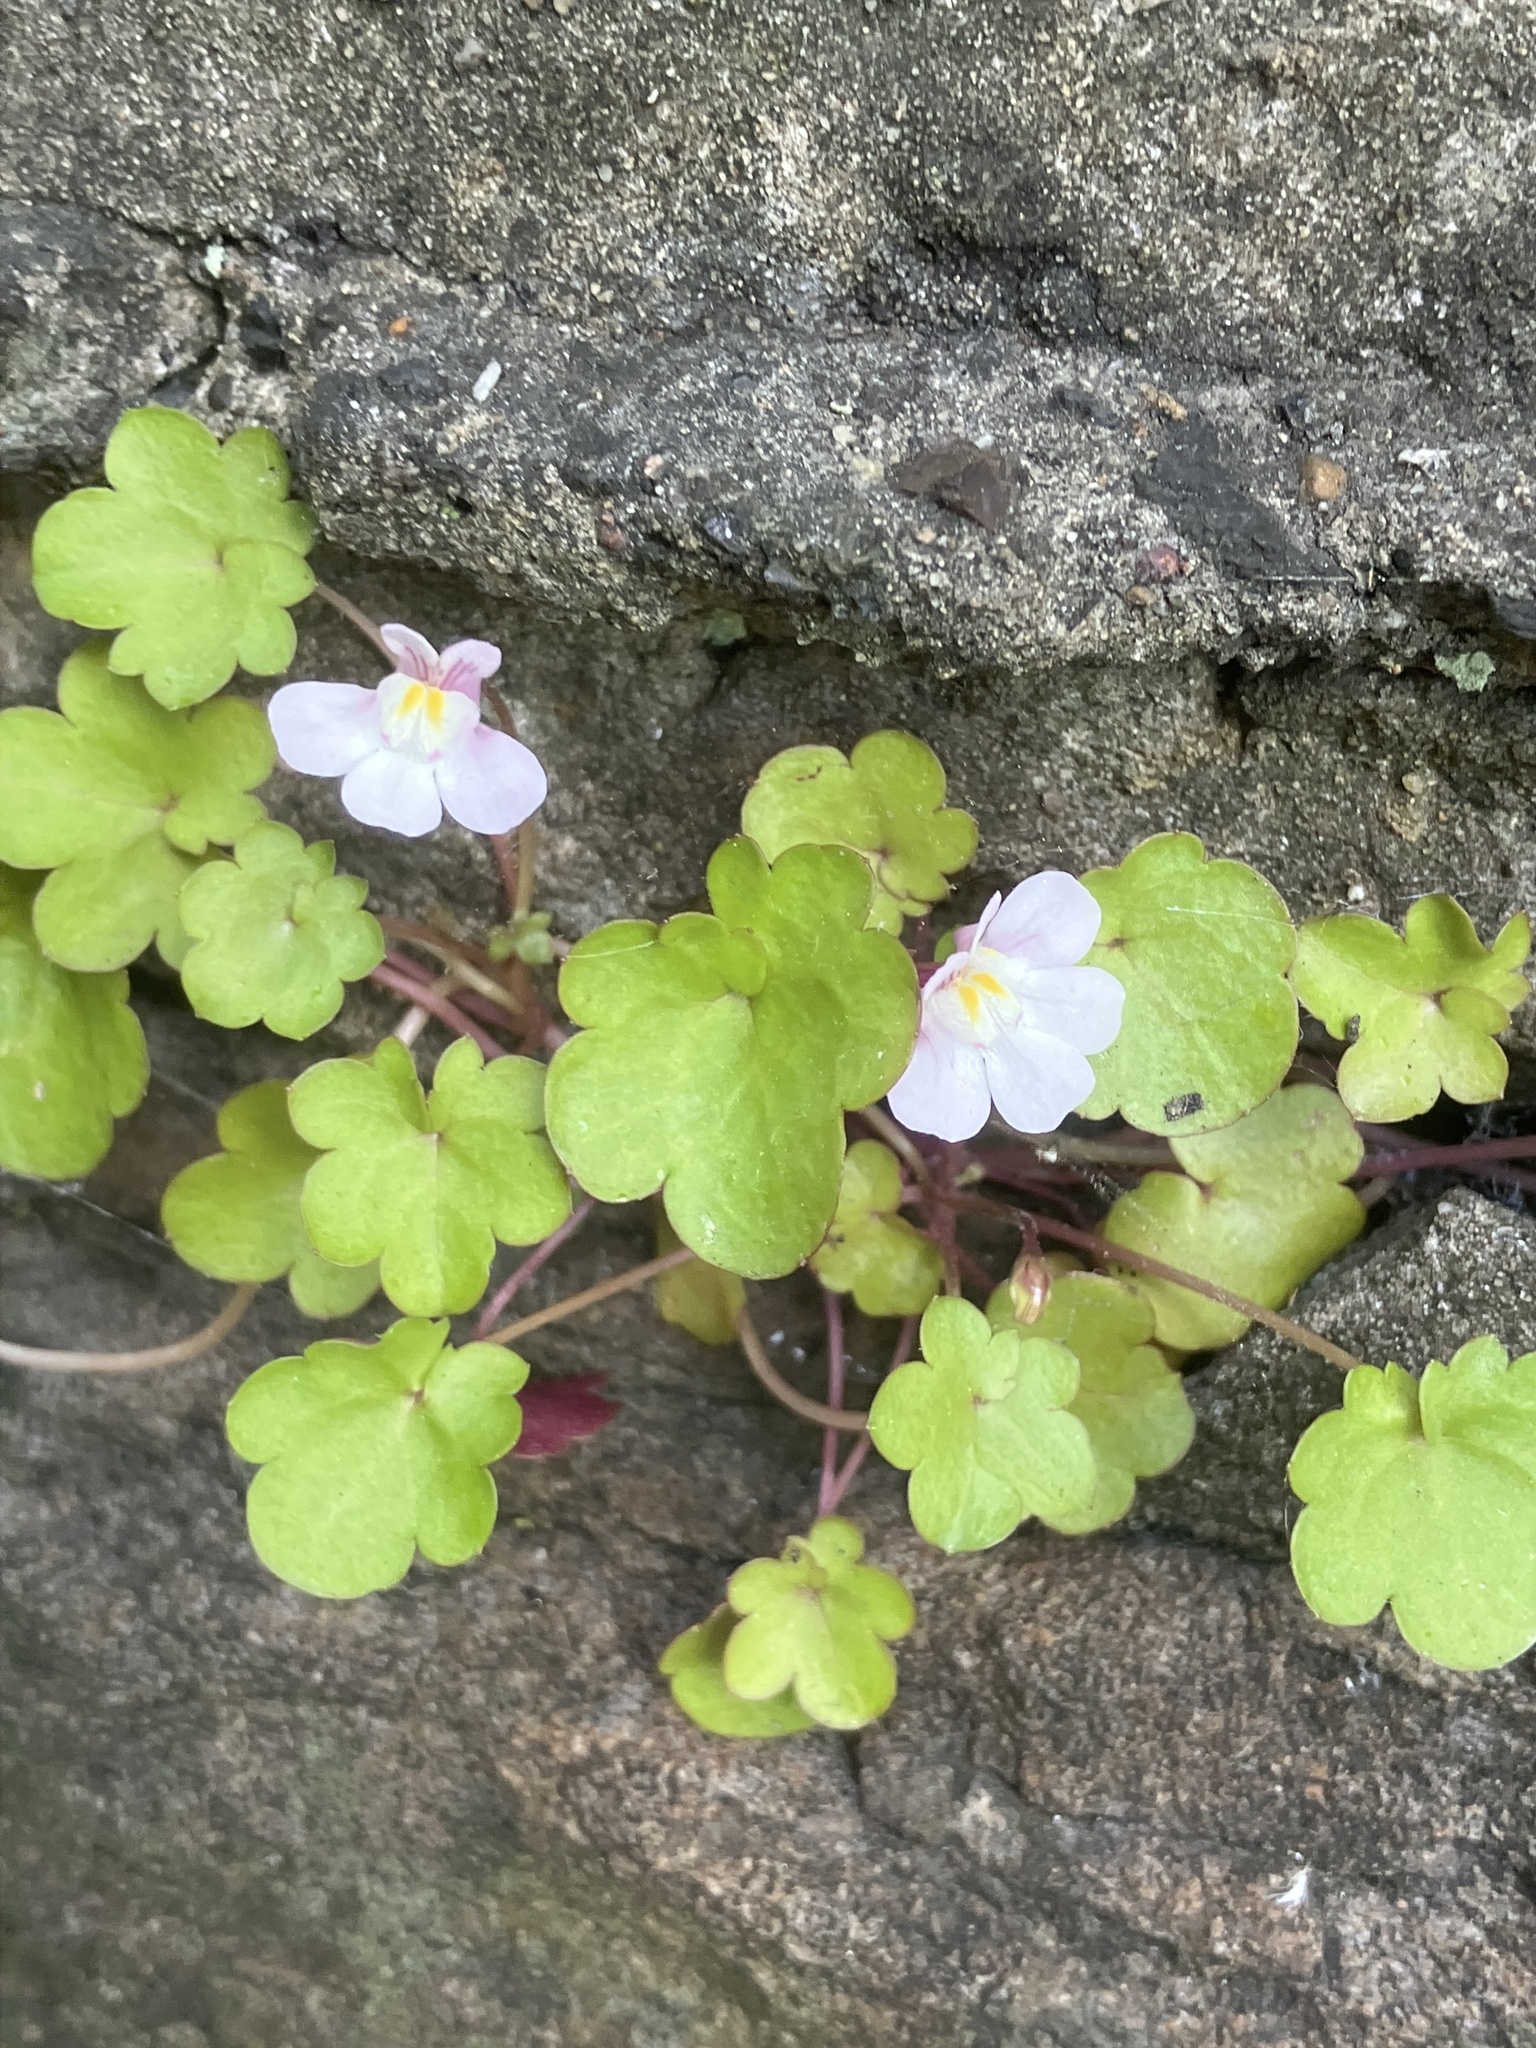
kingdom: Plantae
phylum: Tracheophyta
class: Magnoliopsida
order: Lamiales
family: Plantaginaceae
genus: Cymbalaria
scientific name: Cymbalaria muralis
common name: Ivy-leaved toadflax
